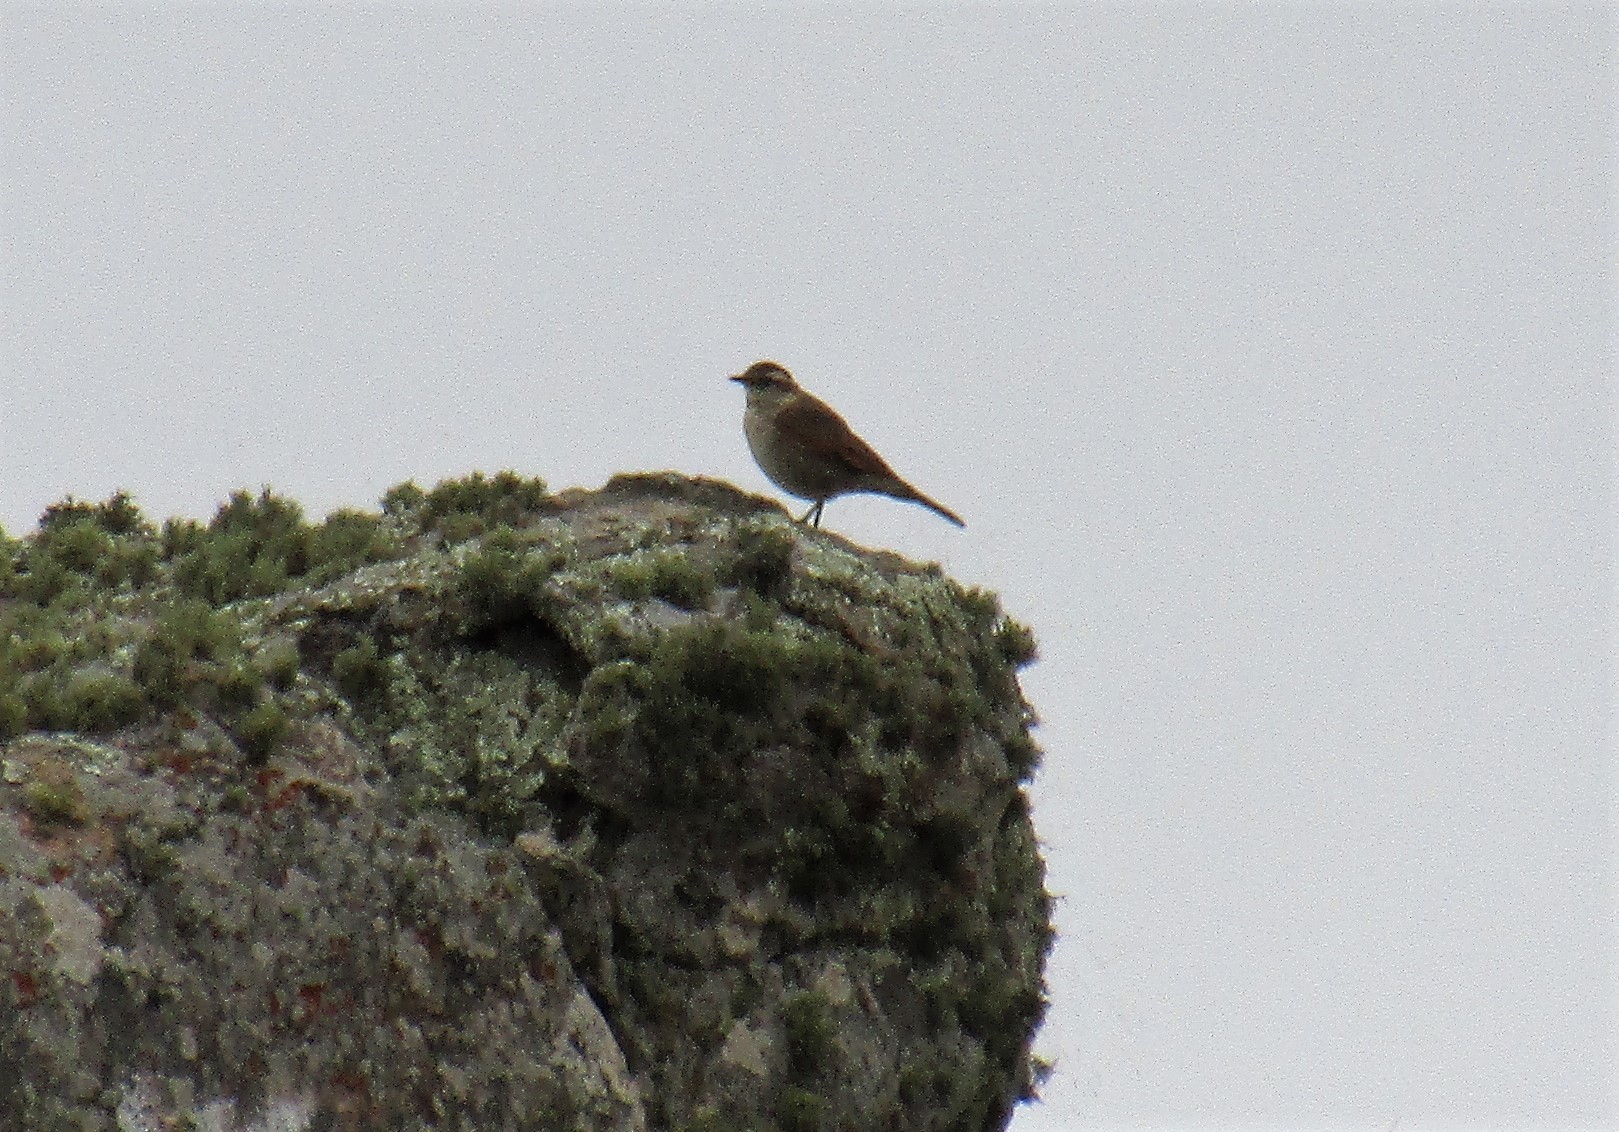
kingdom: Animalia
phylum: Chordata
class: Aves
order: Passeriformes
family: Furnariidae
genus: Cinclodes
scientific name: Cinclodes comechingonus
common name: Cordoba cinclodes
